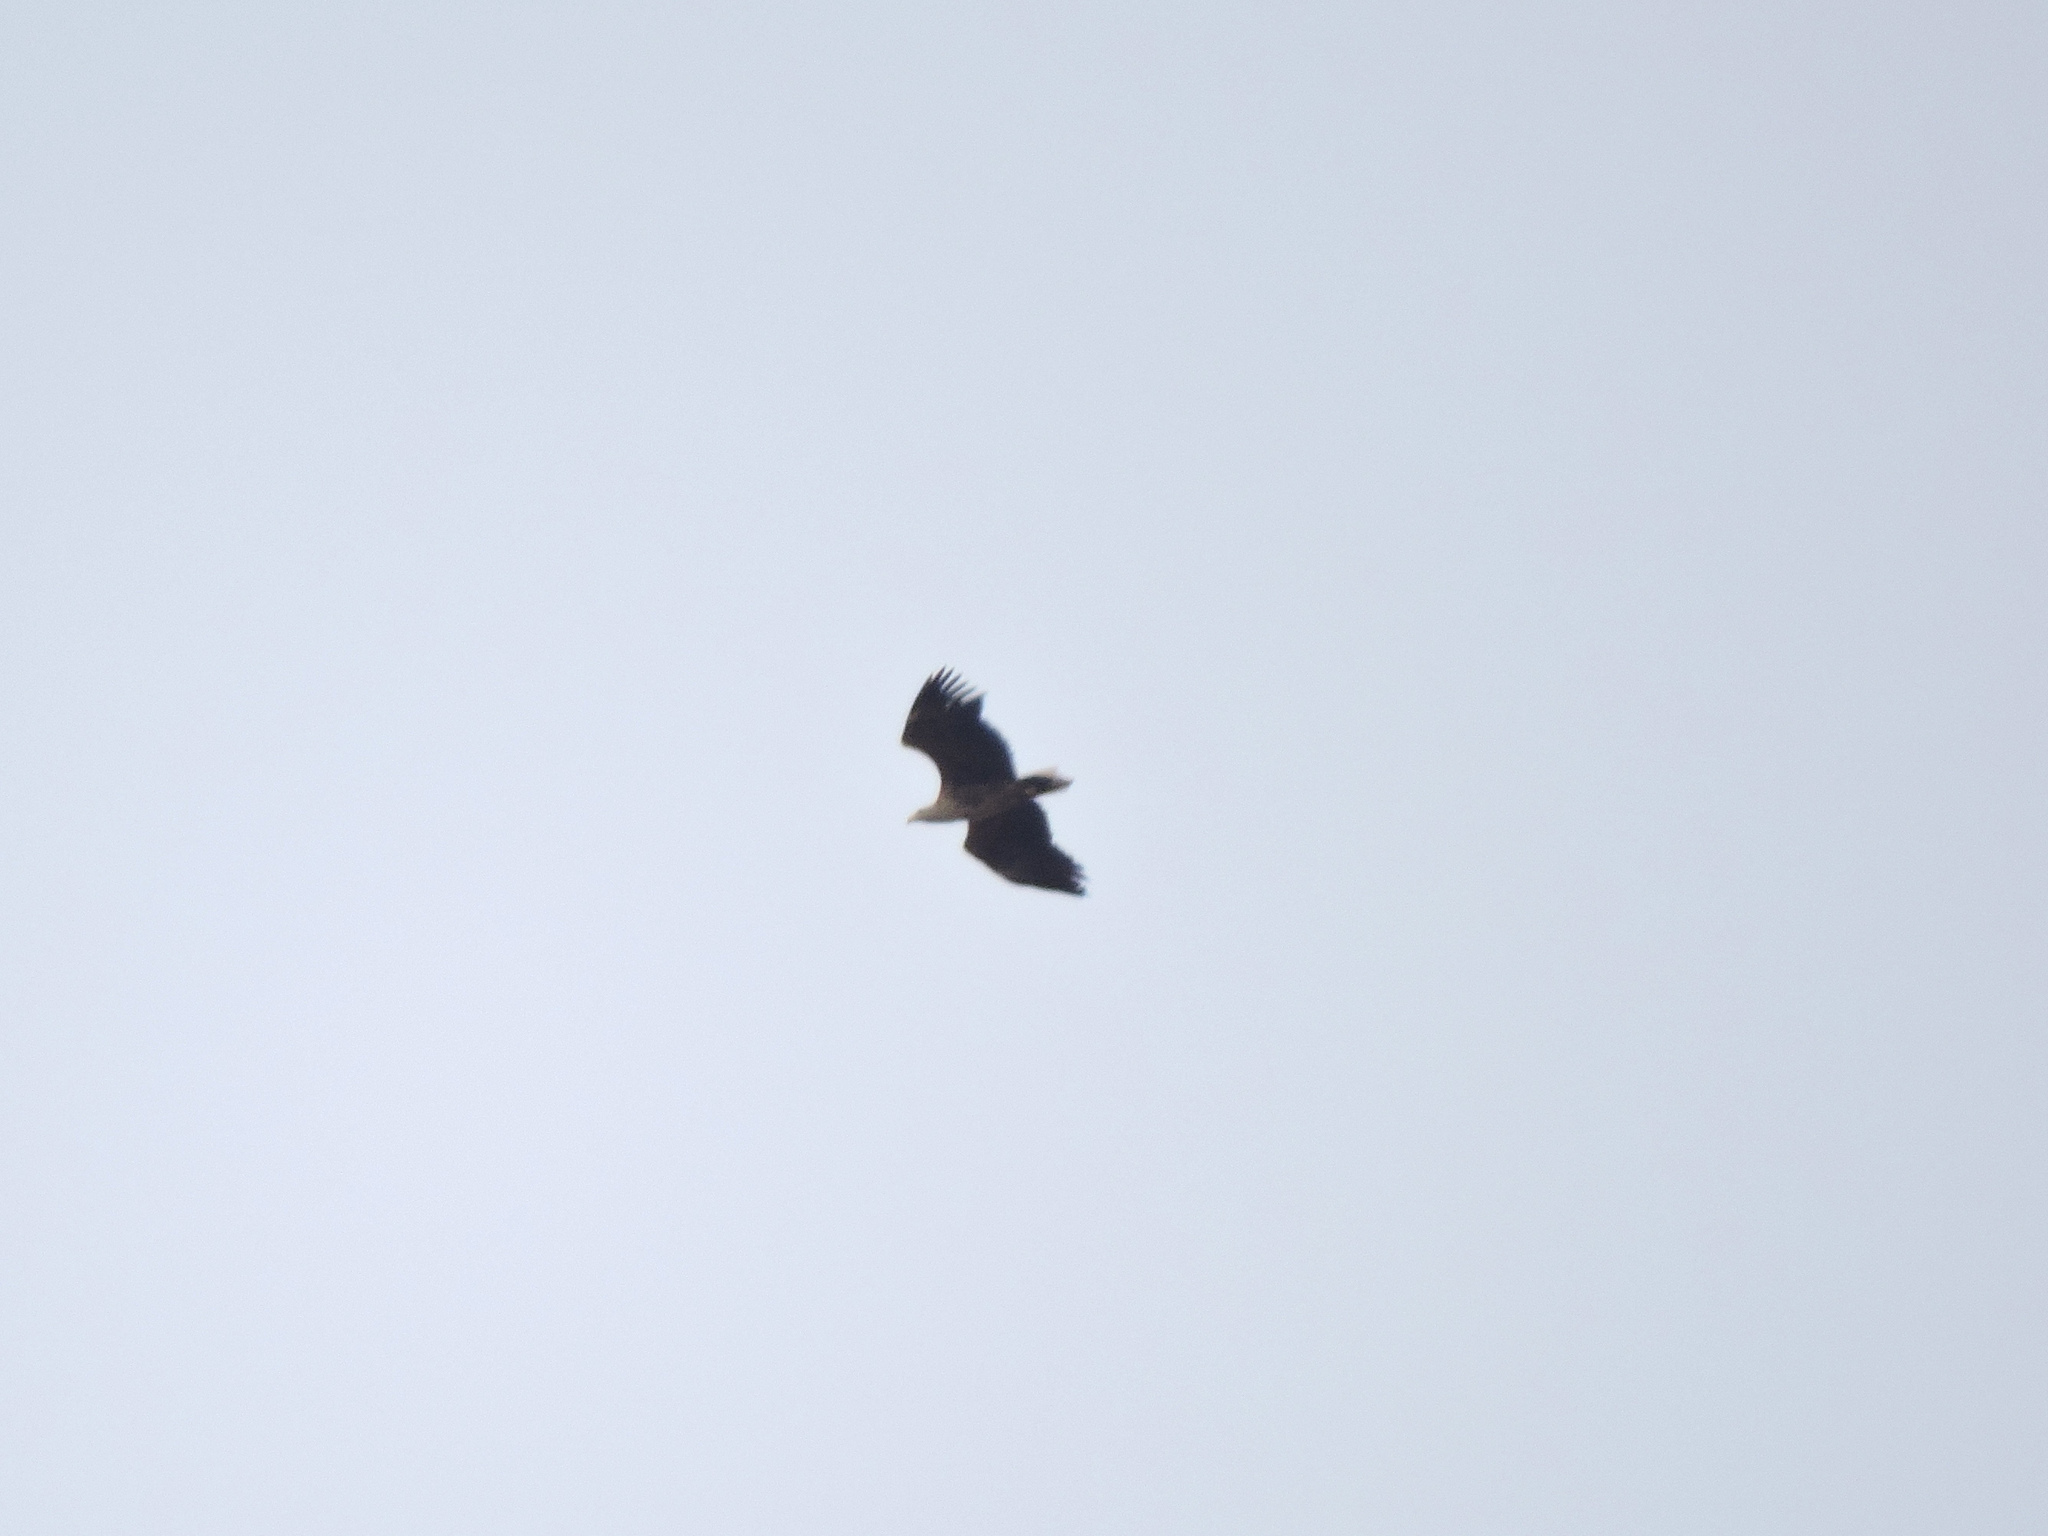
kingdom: Animalia
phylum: Chordata
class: Aves
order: Accipitriformes
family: Accipitridae
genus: Haliaeetus
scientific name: Haliaeetus albicilla
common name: White-tailed eagle
